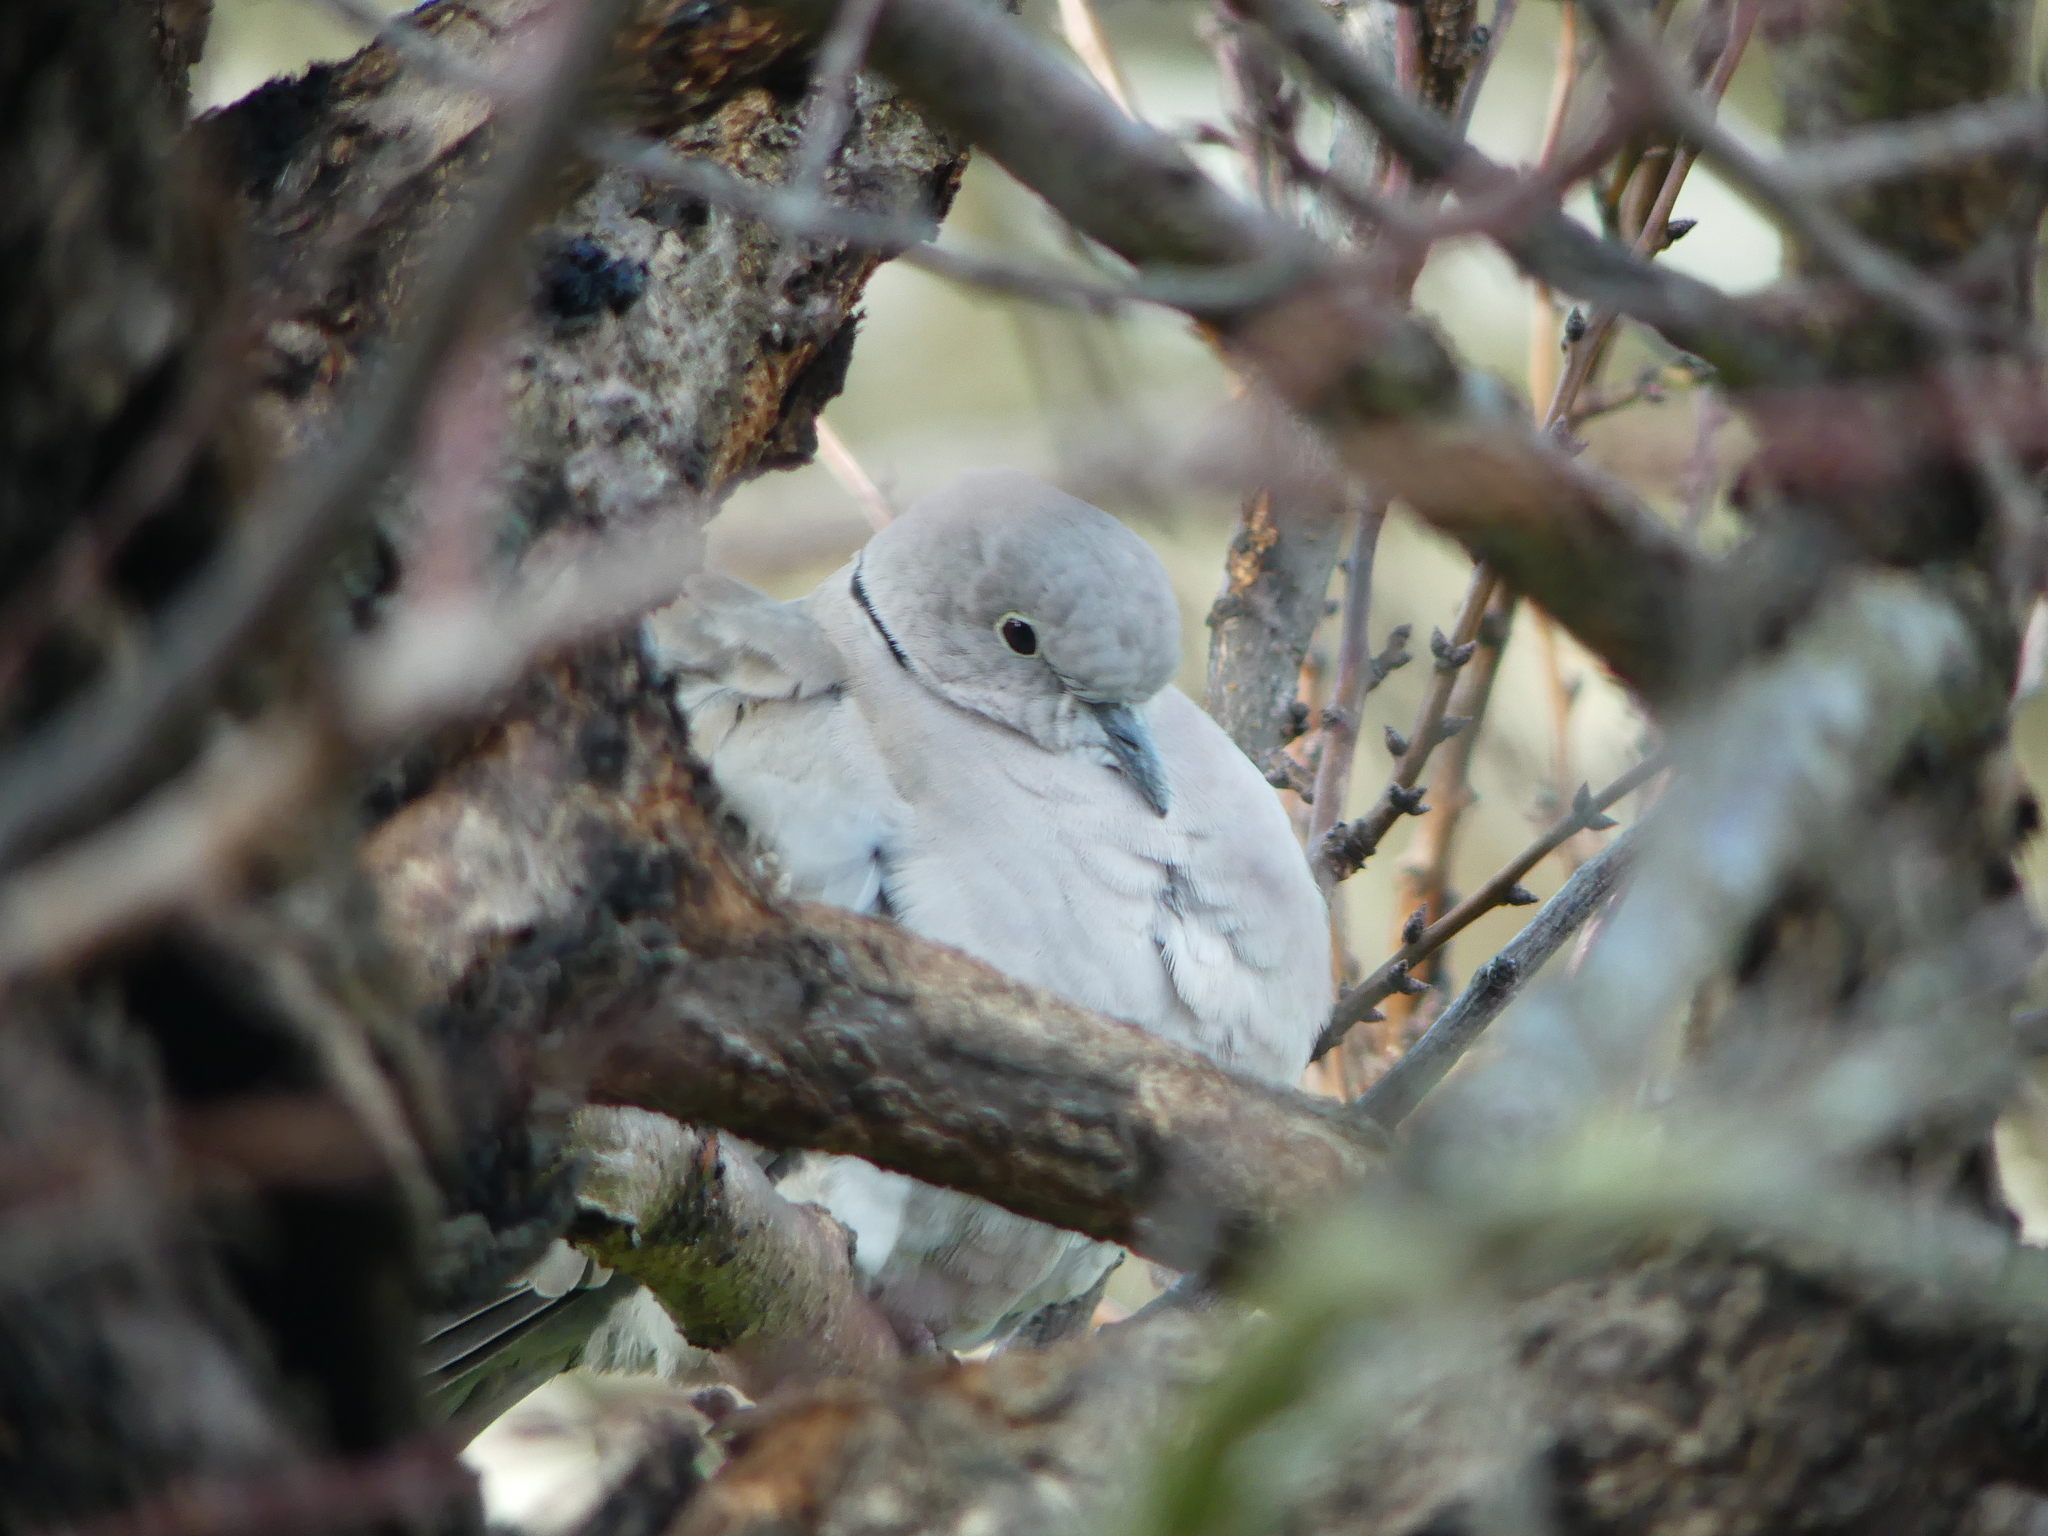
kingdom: Animalia
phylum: Chordata
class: Aves
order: Columbiformes
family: Columbidae
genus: Streptopelia
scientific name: Streptopelia decaocto
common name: Eurasian collared dove
